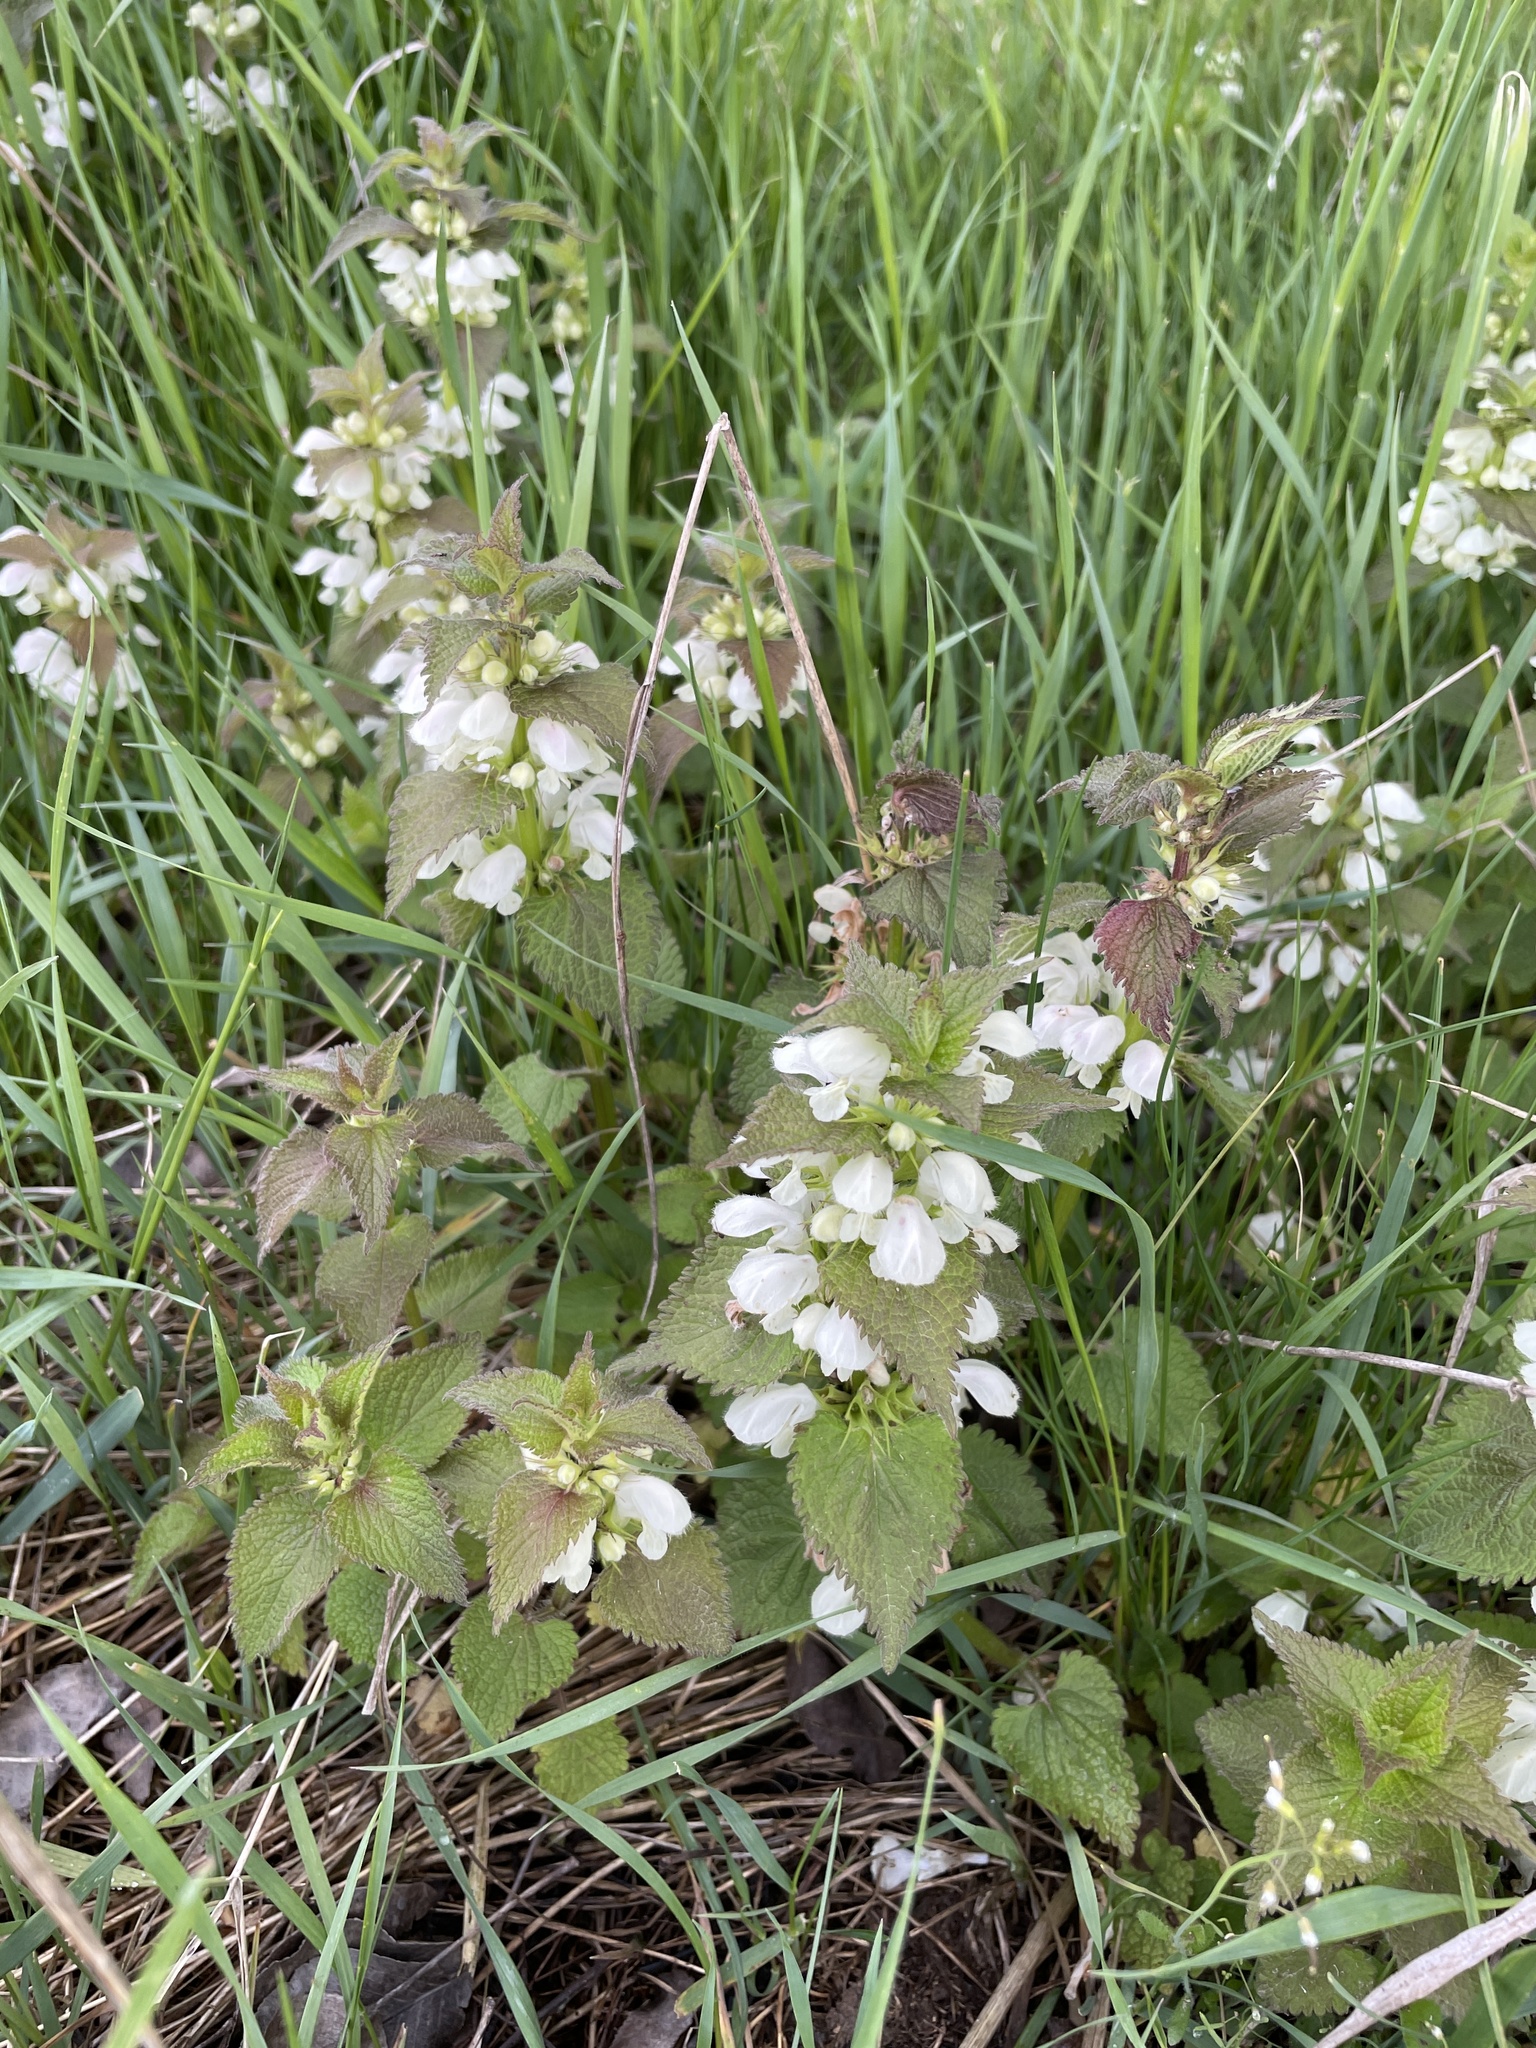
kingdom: Plantae
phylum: Tracheophyta
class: Magnoliopsida
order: Lamiales
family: Lamiaceae
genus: Lamium
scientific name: Lamium album
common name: White dead-nettle
